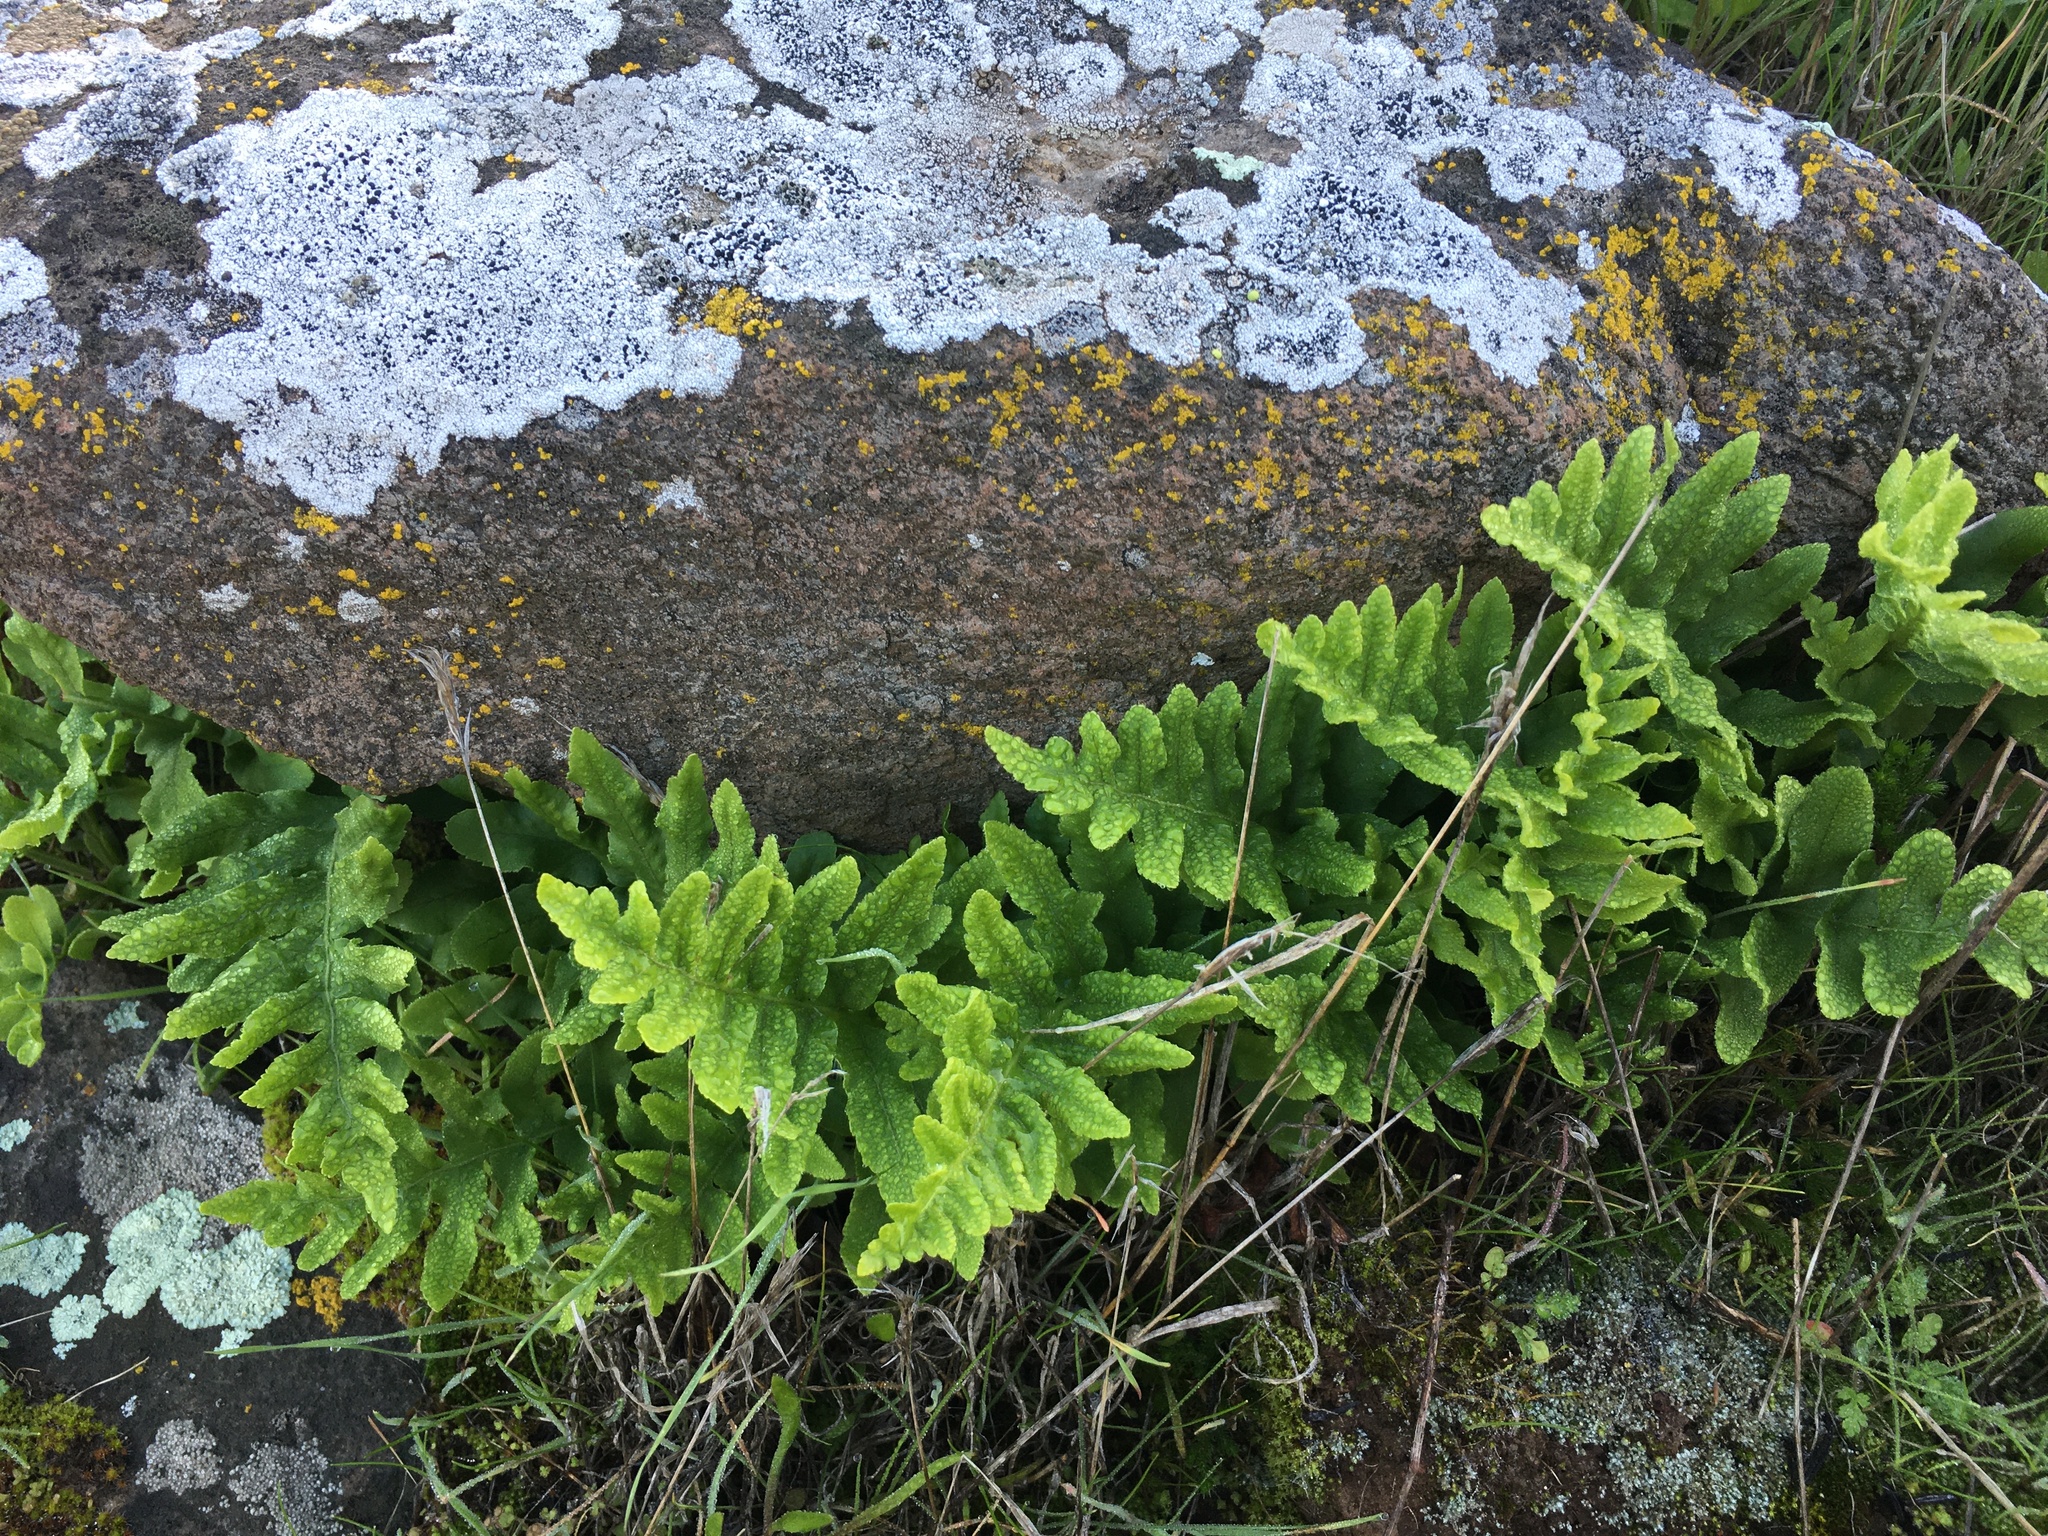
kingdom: Plantae
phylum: Tracheophyta
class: Polypodiopsida
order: Polypodiales
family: Polypodiaceae
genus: Polypodium
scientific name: Polypodium californicum
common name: California polypody
